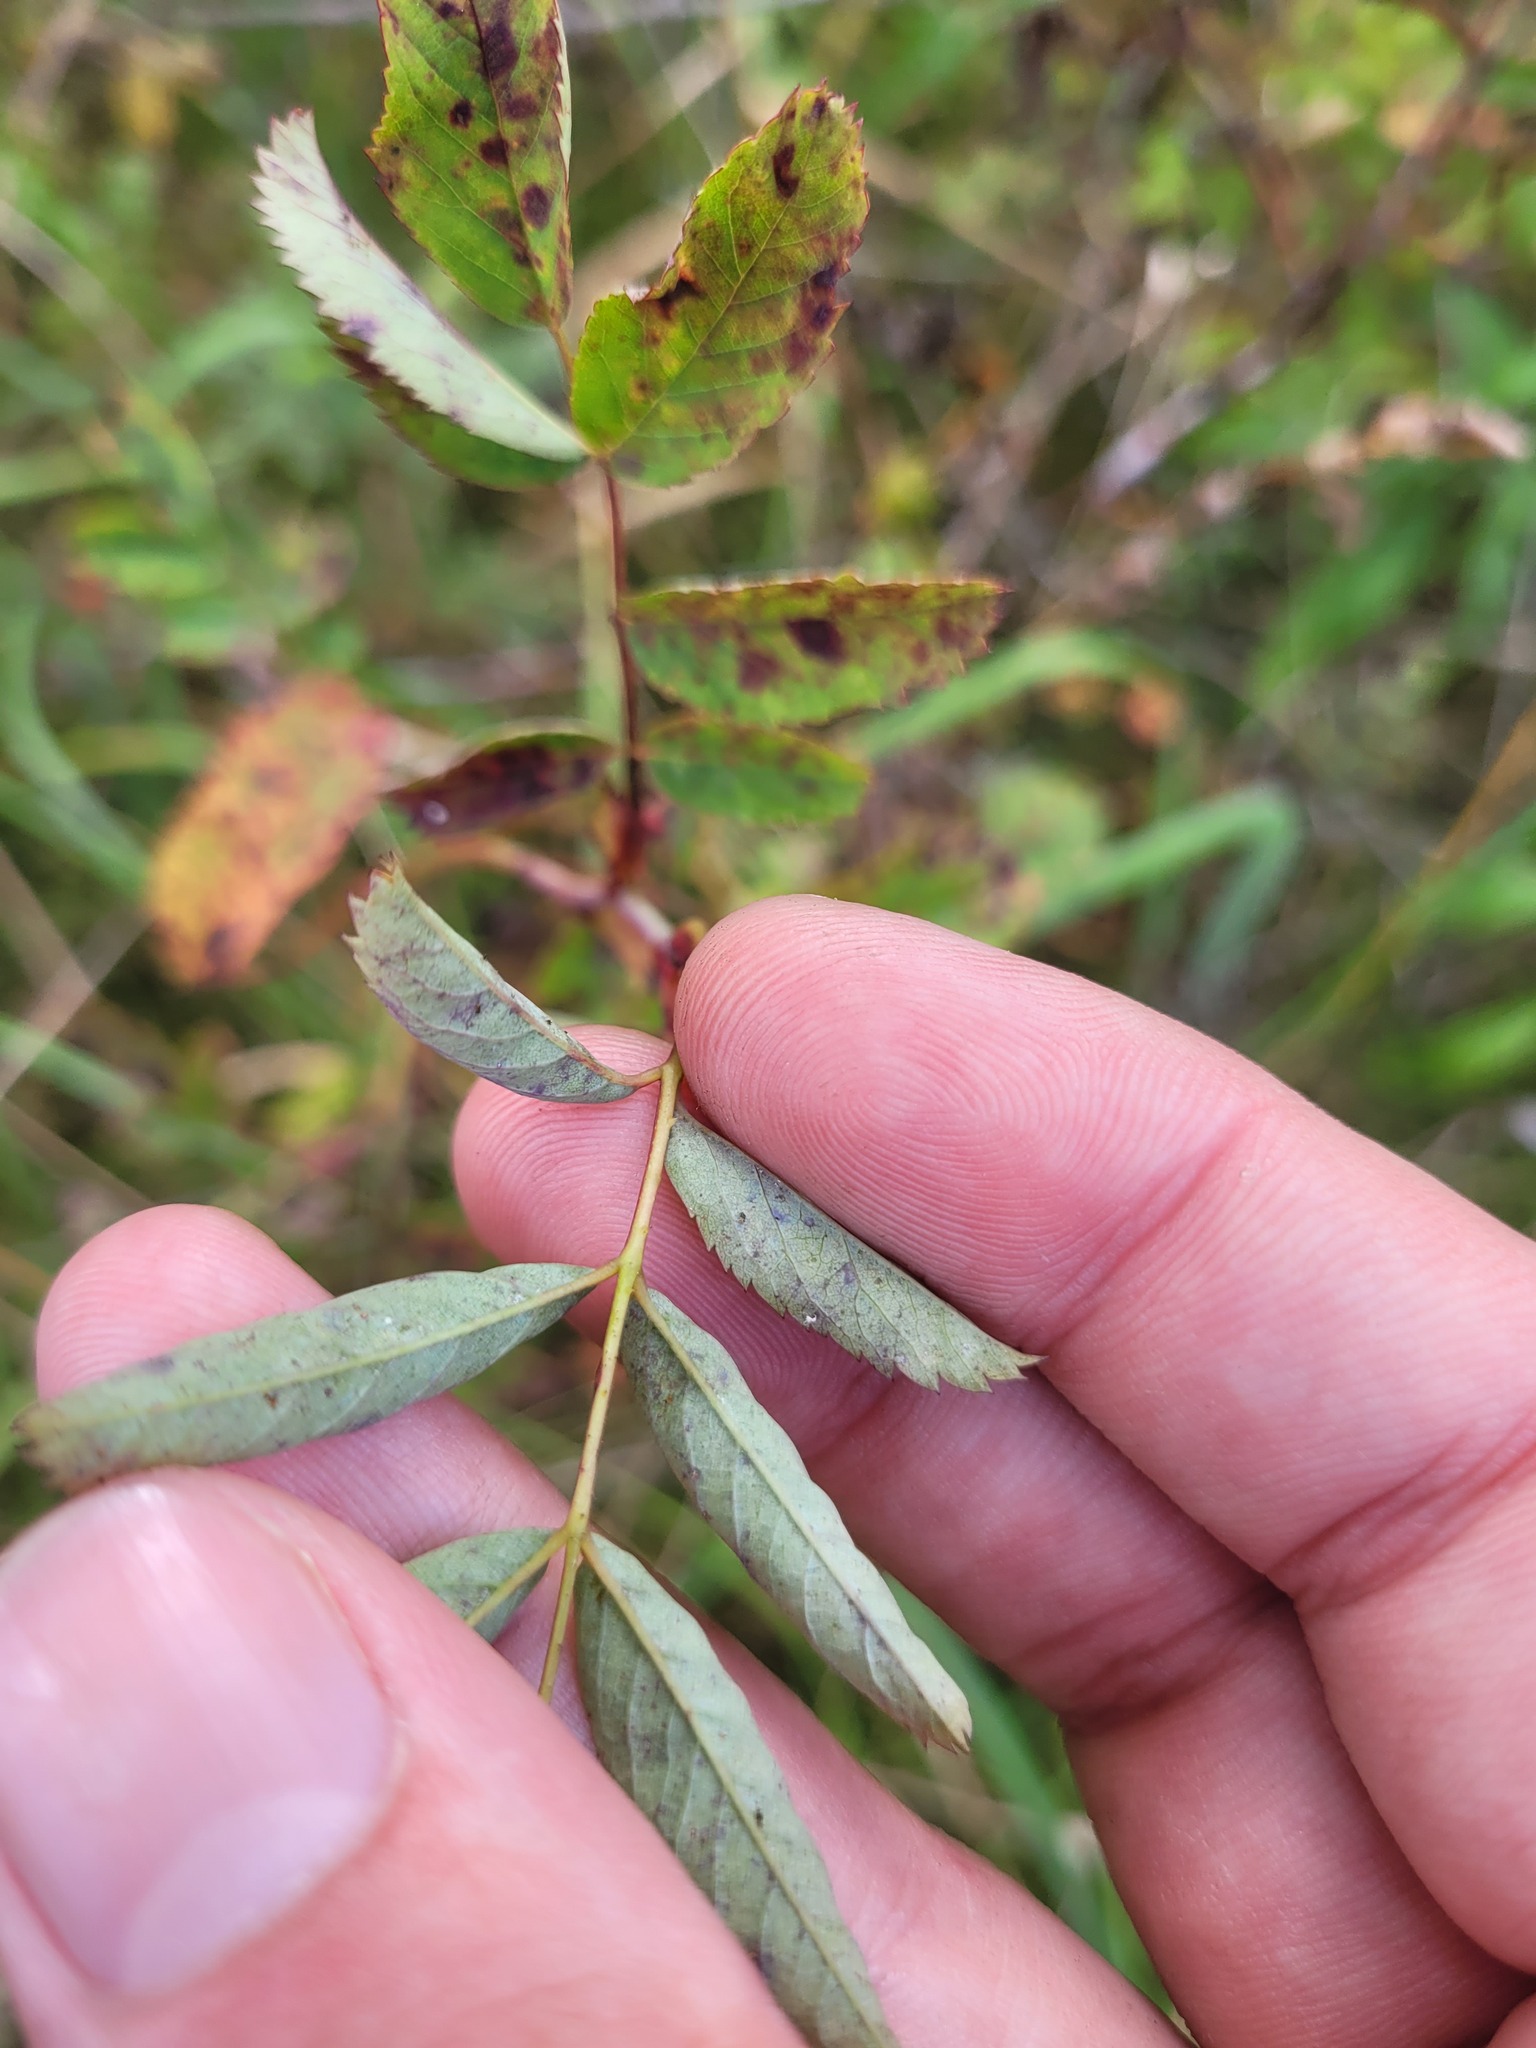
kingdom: Plantae
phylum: Tracheophyta
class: Magnoliopsida
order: Rosales
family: Rosaceae
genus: Rosa
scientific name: Rosa majalis
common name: Cinnamon rose
